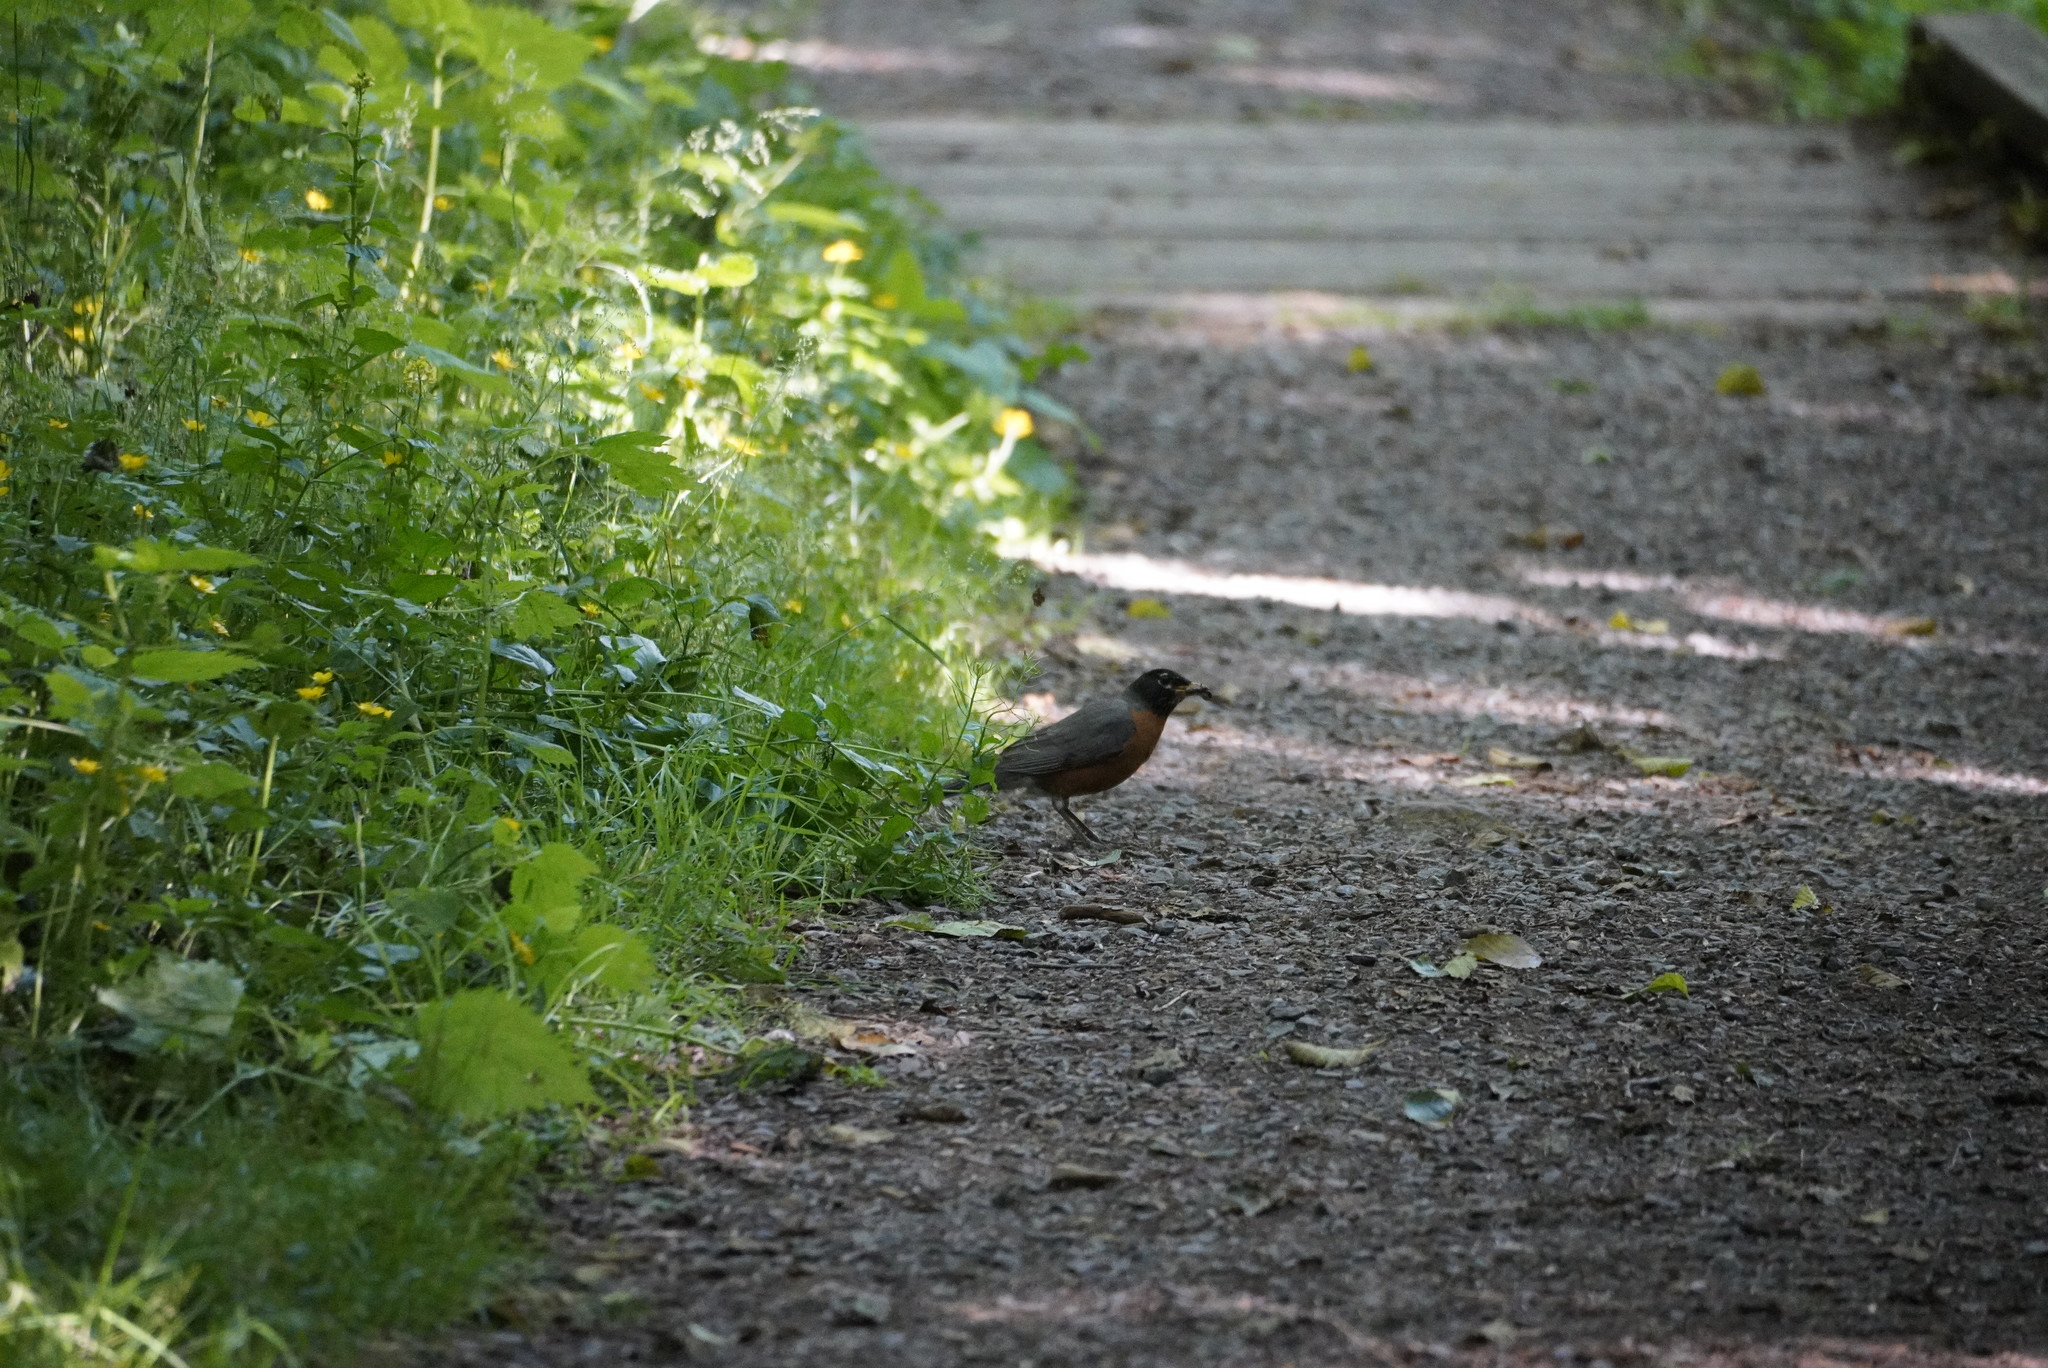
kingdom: Animalia
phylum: Chordata
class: Aves
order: Passeriformes
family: Turdidae
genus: Turdus
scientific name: Turdus migratorius
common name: American robin
